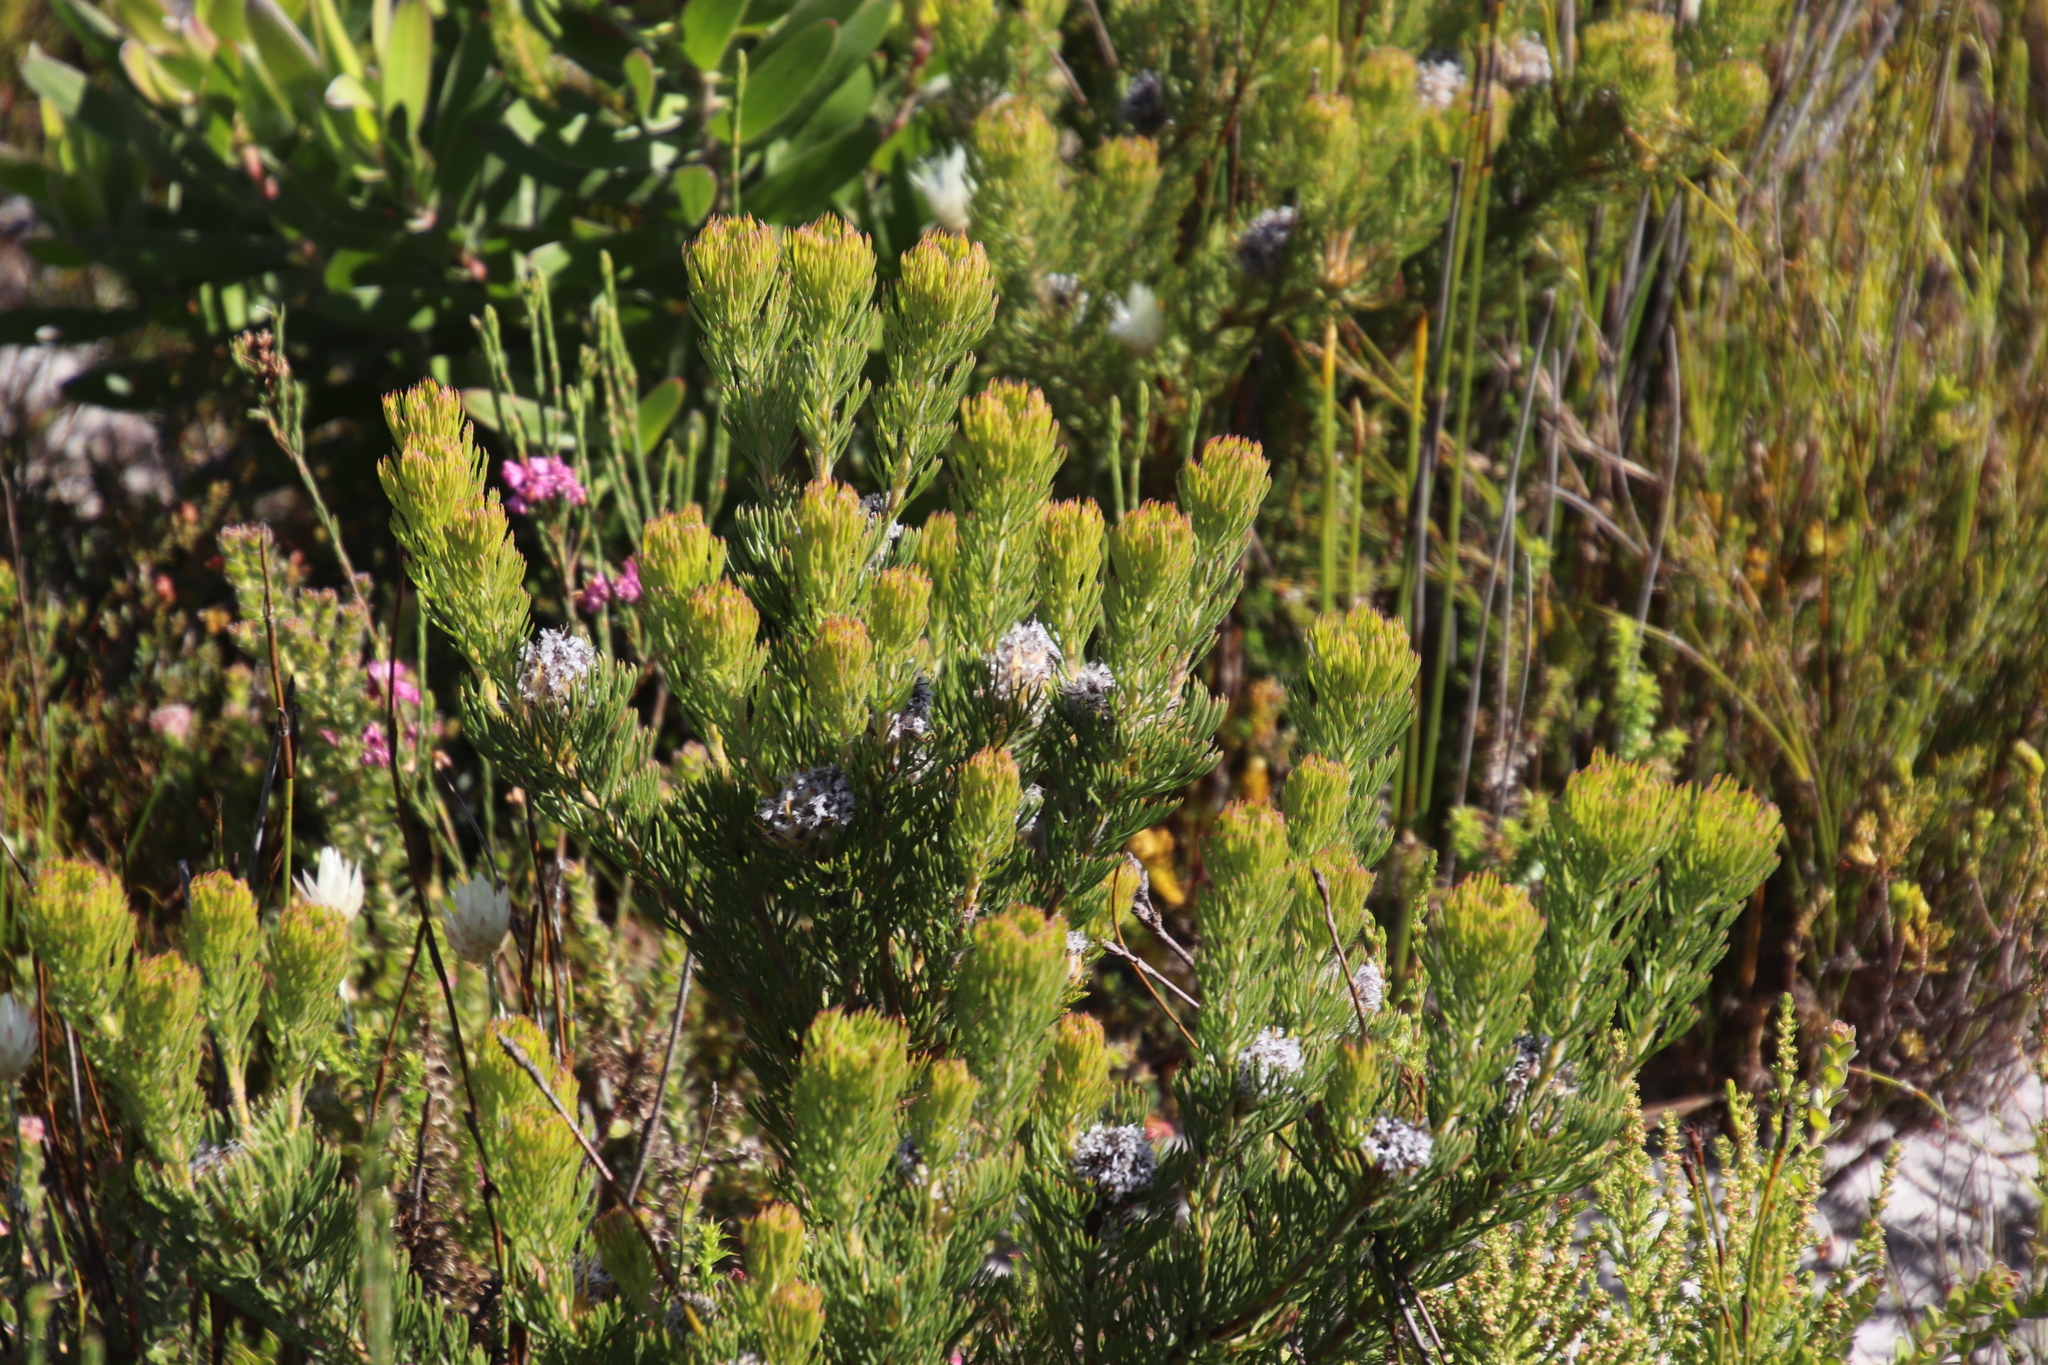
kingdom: Plantae
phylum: Tracheophyta
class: Magnoliopsida
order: Proteales
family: Proteaceae
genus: Serruria
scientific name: Serruria villosa
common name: Golden spiderhead
